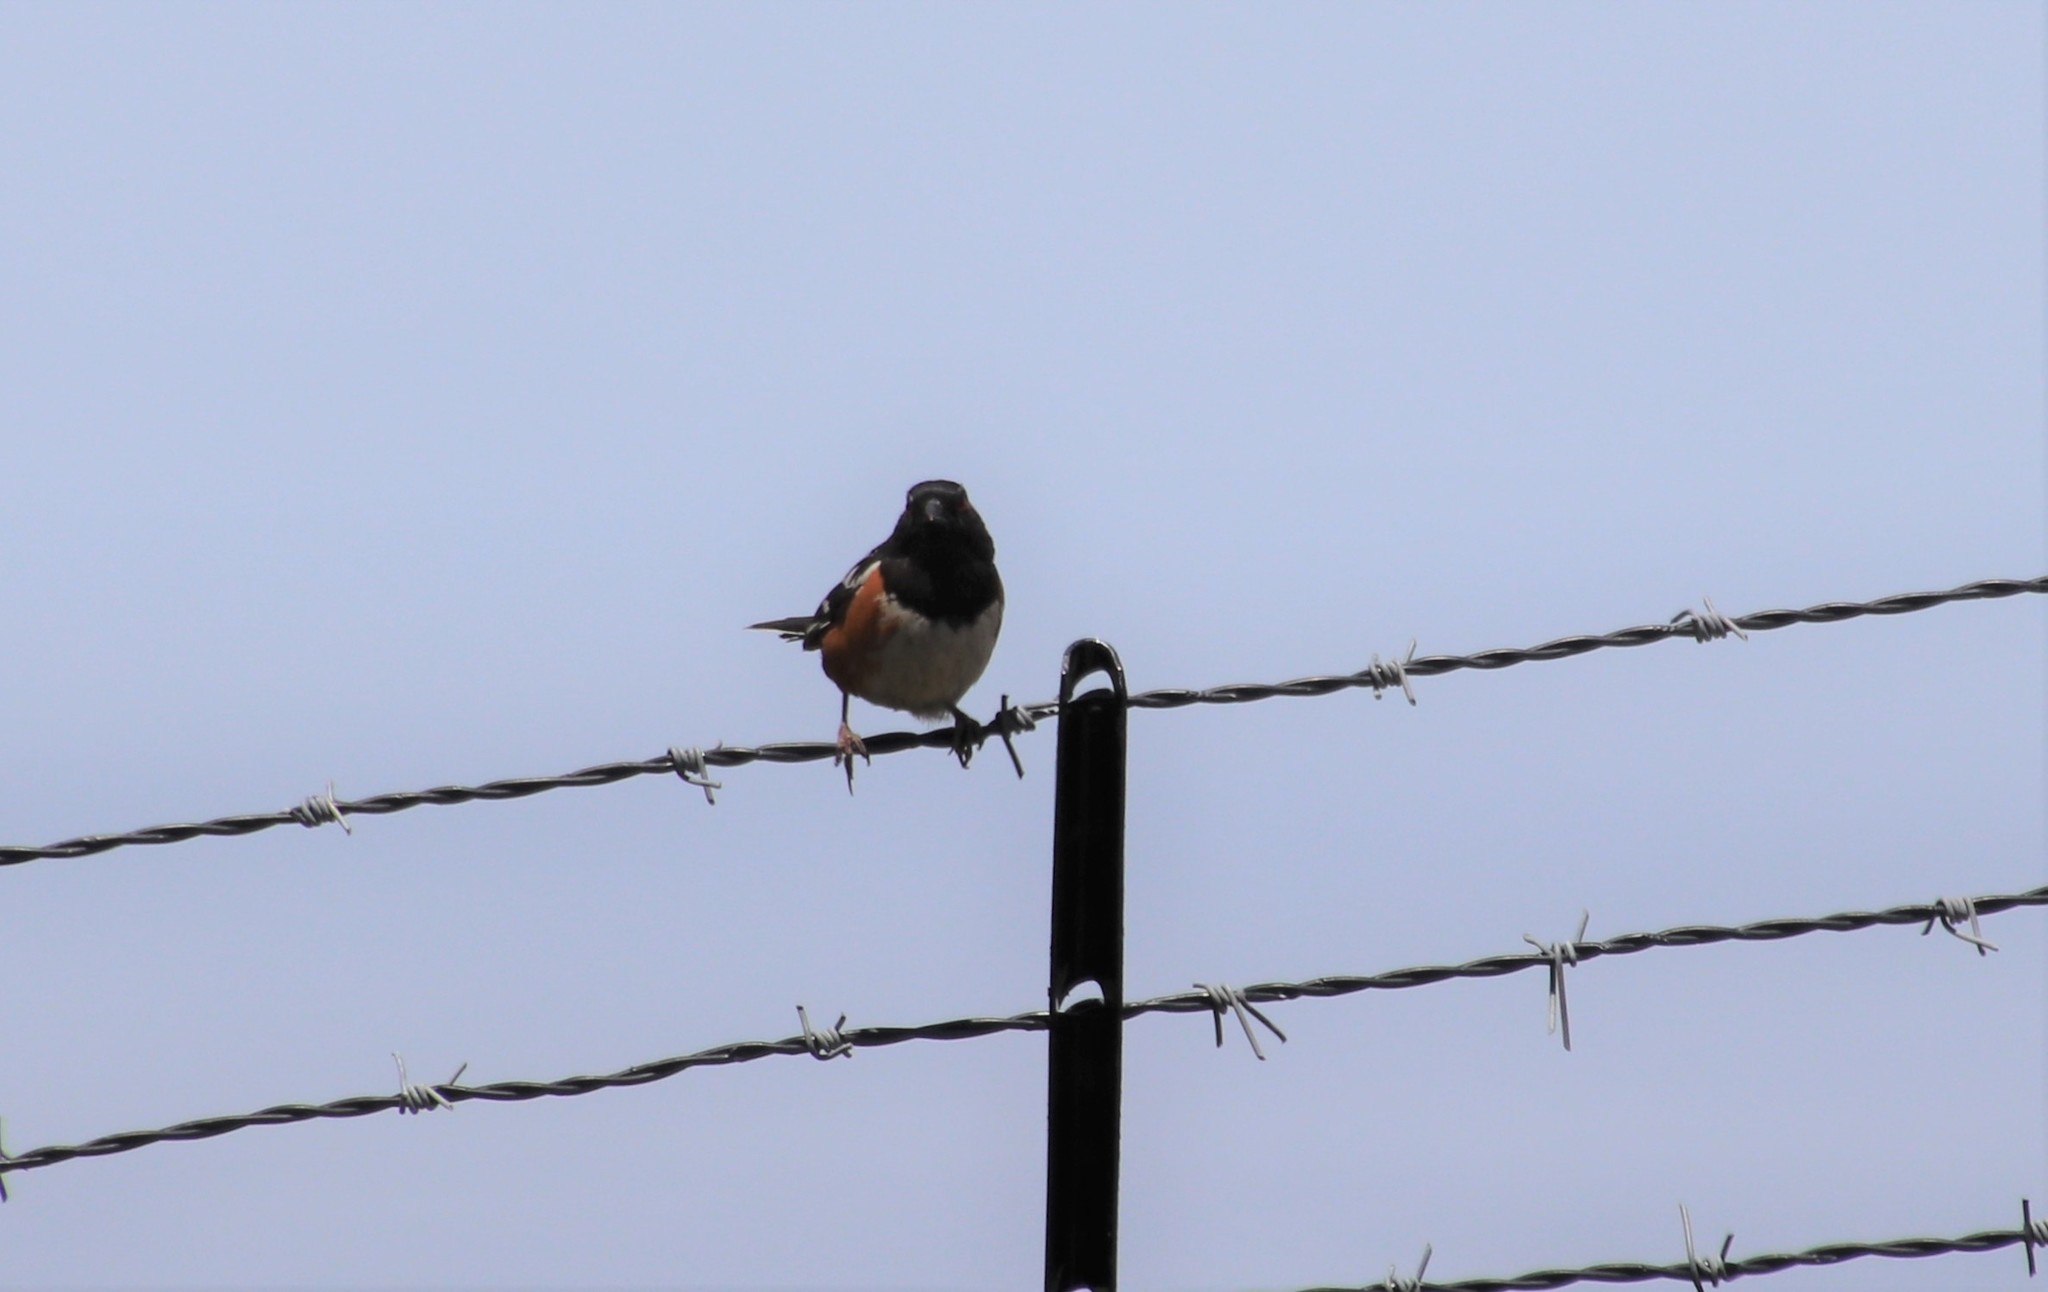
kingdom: Animalia
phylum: Chordata
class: Aves
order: Passeriformes
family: Passerellidae
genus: Pipilo
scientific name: Pipilo maculatus
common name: Spotted towhee
